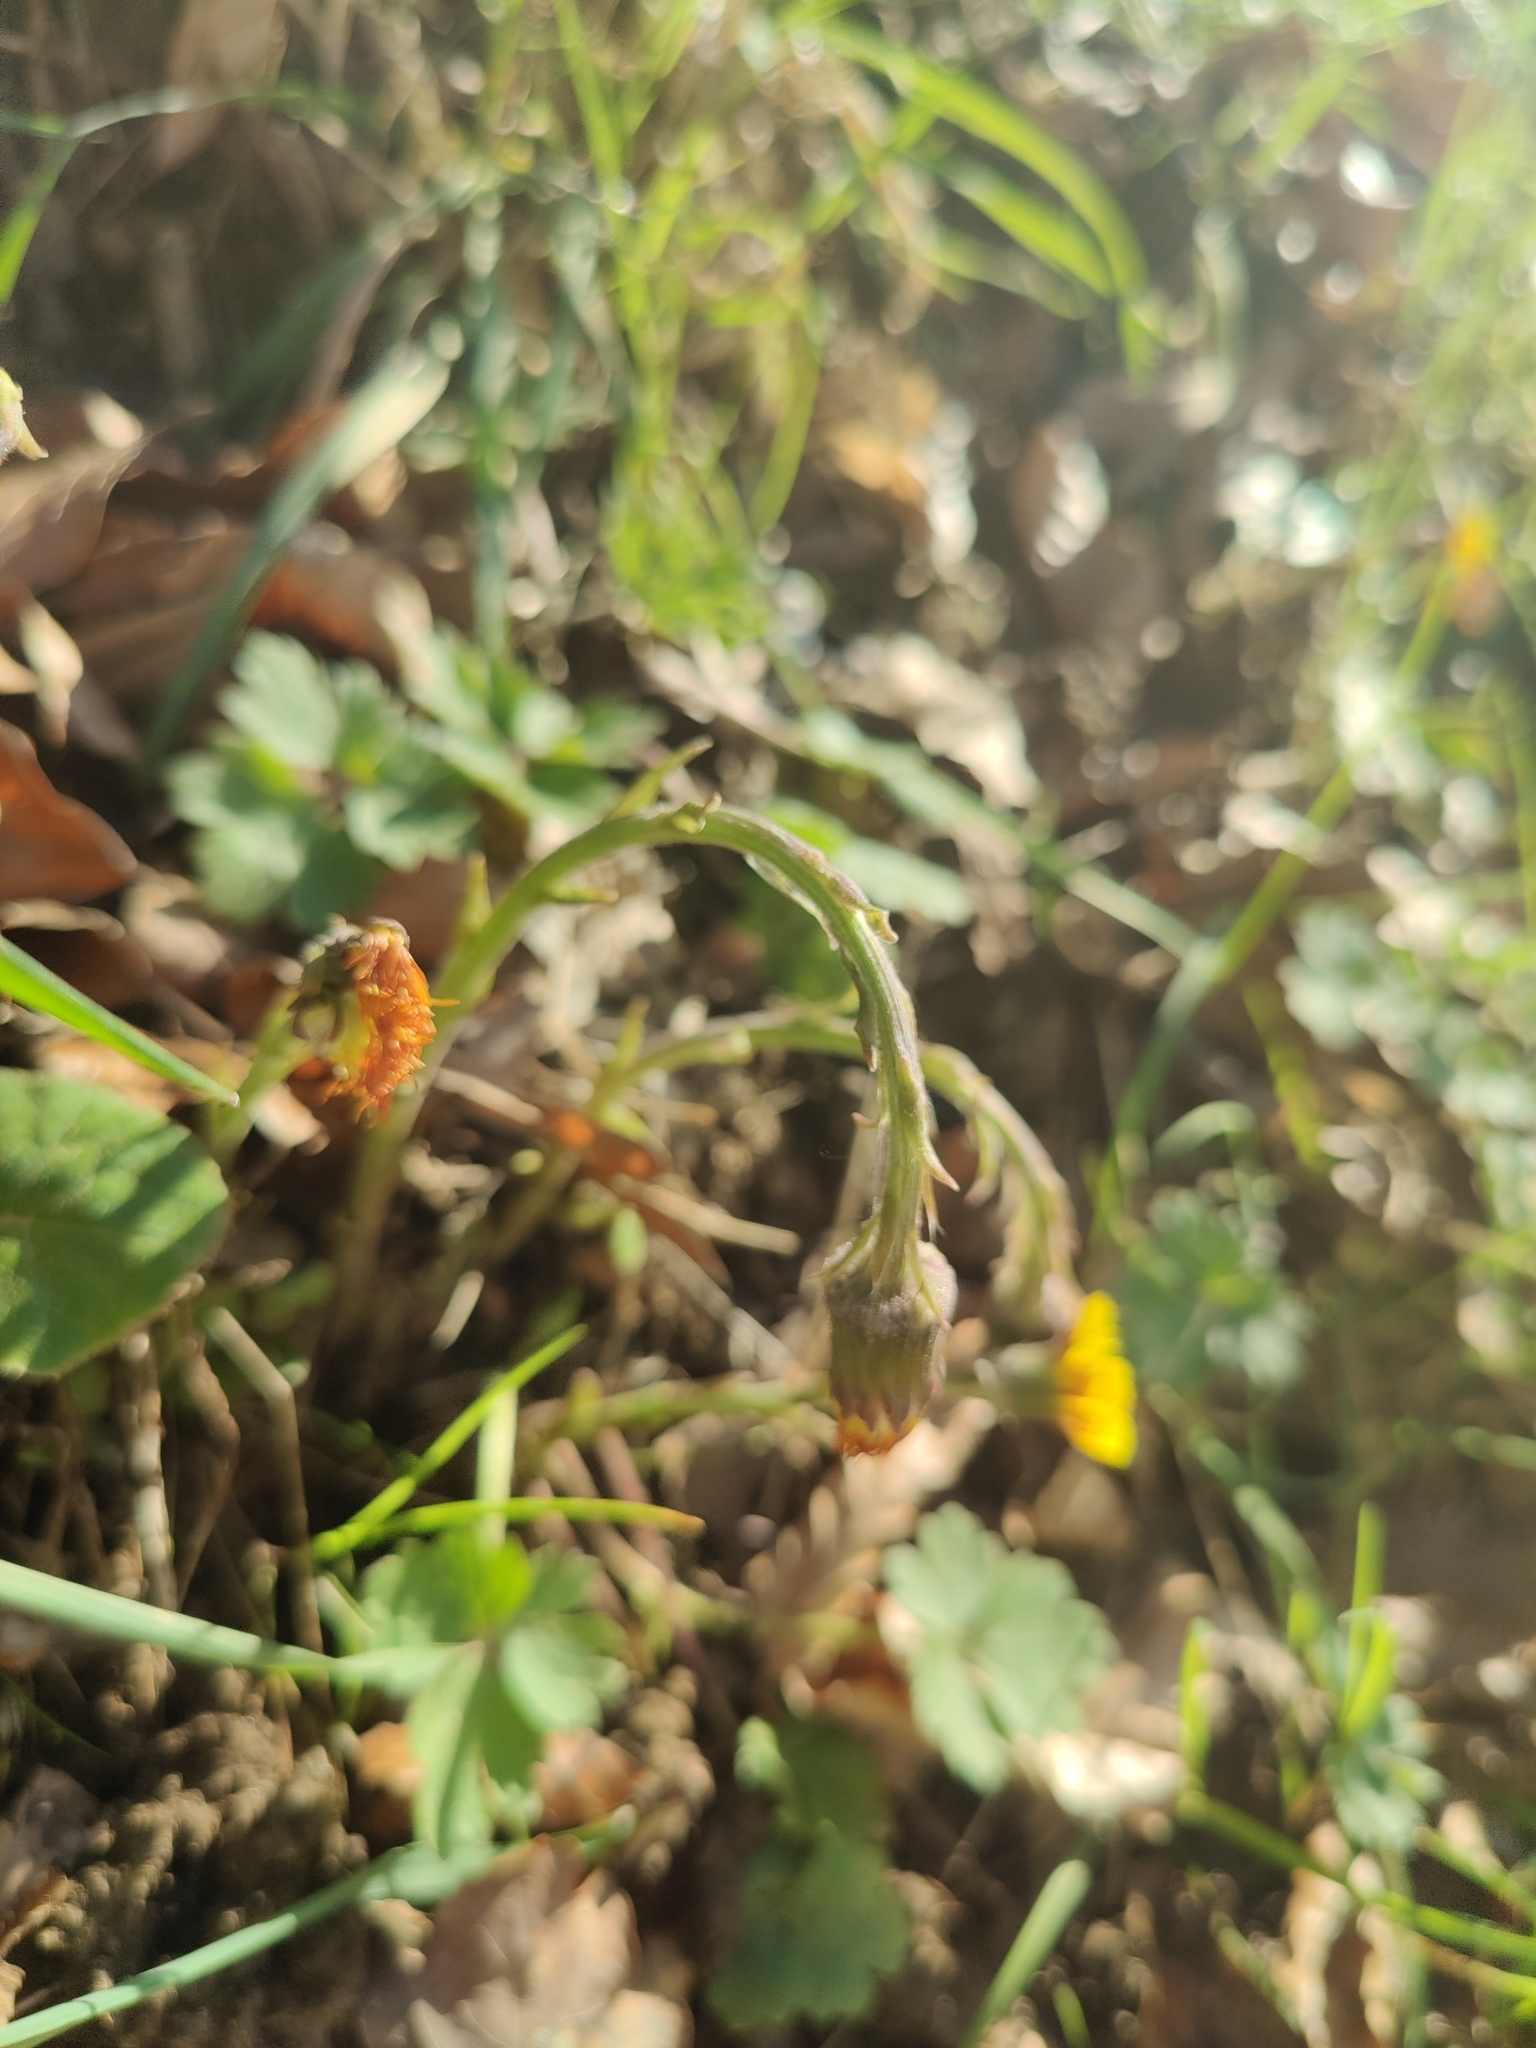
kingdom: Plantae
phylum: Tracheophyta
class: Magnoliopsida
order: Asterales
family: Asteraceae
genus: Tussilago
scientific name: Tussilago farfara
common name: Coltsfoot
